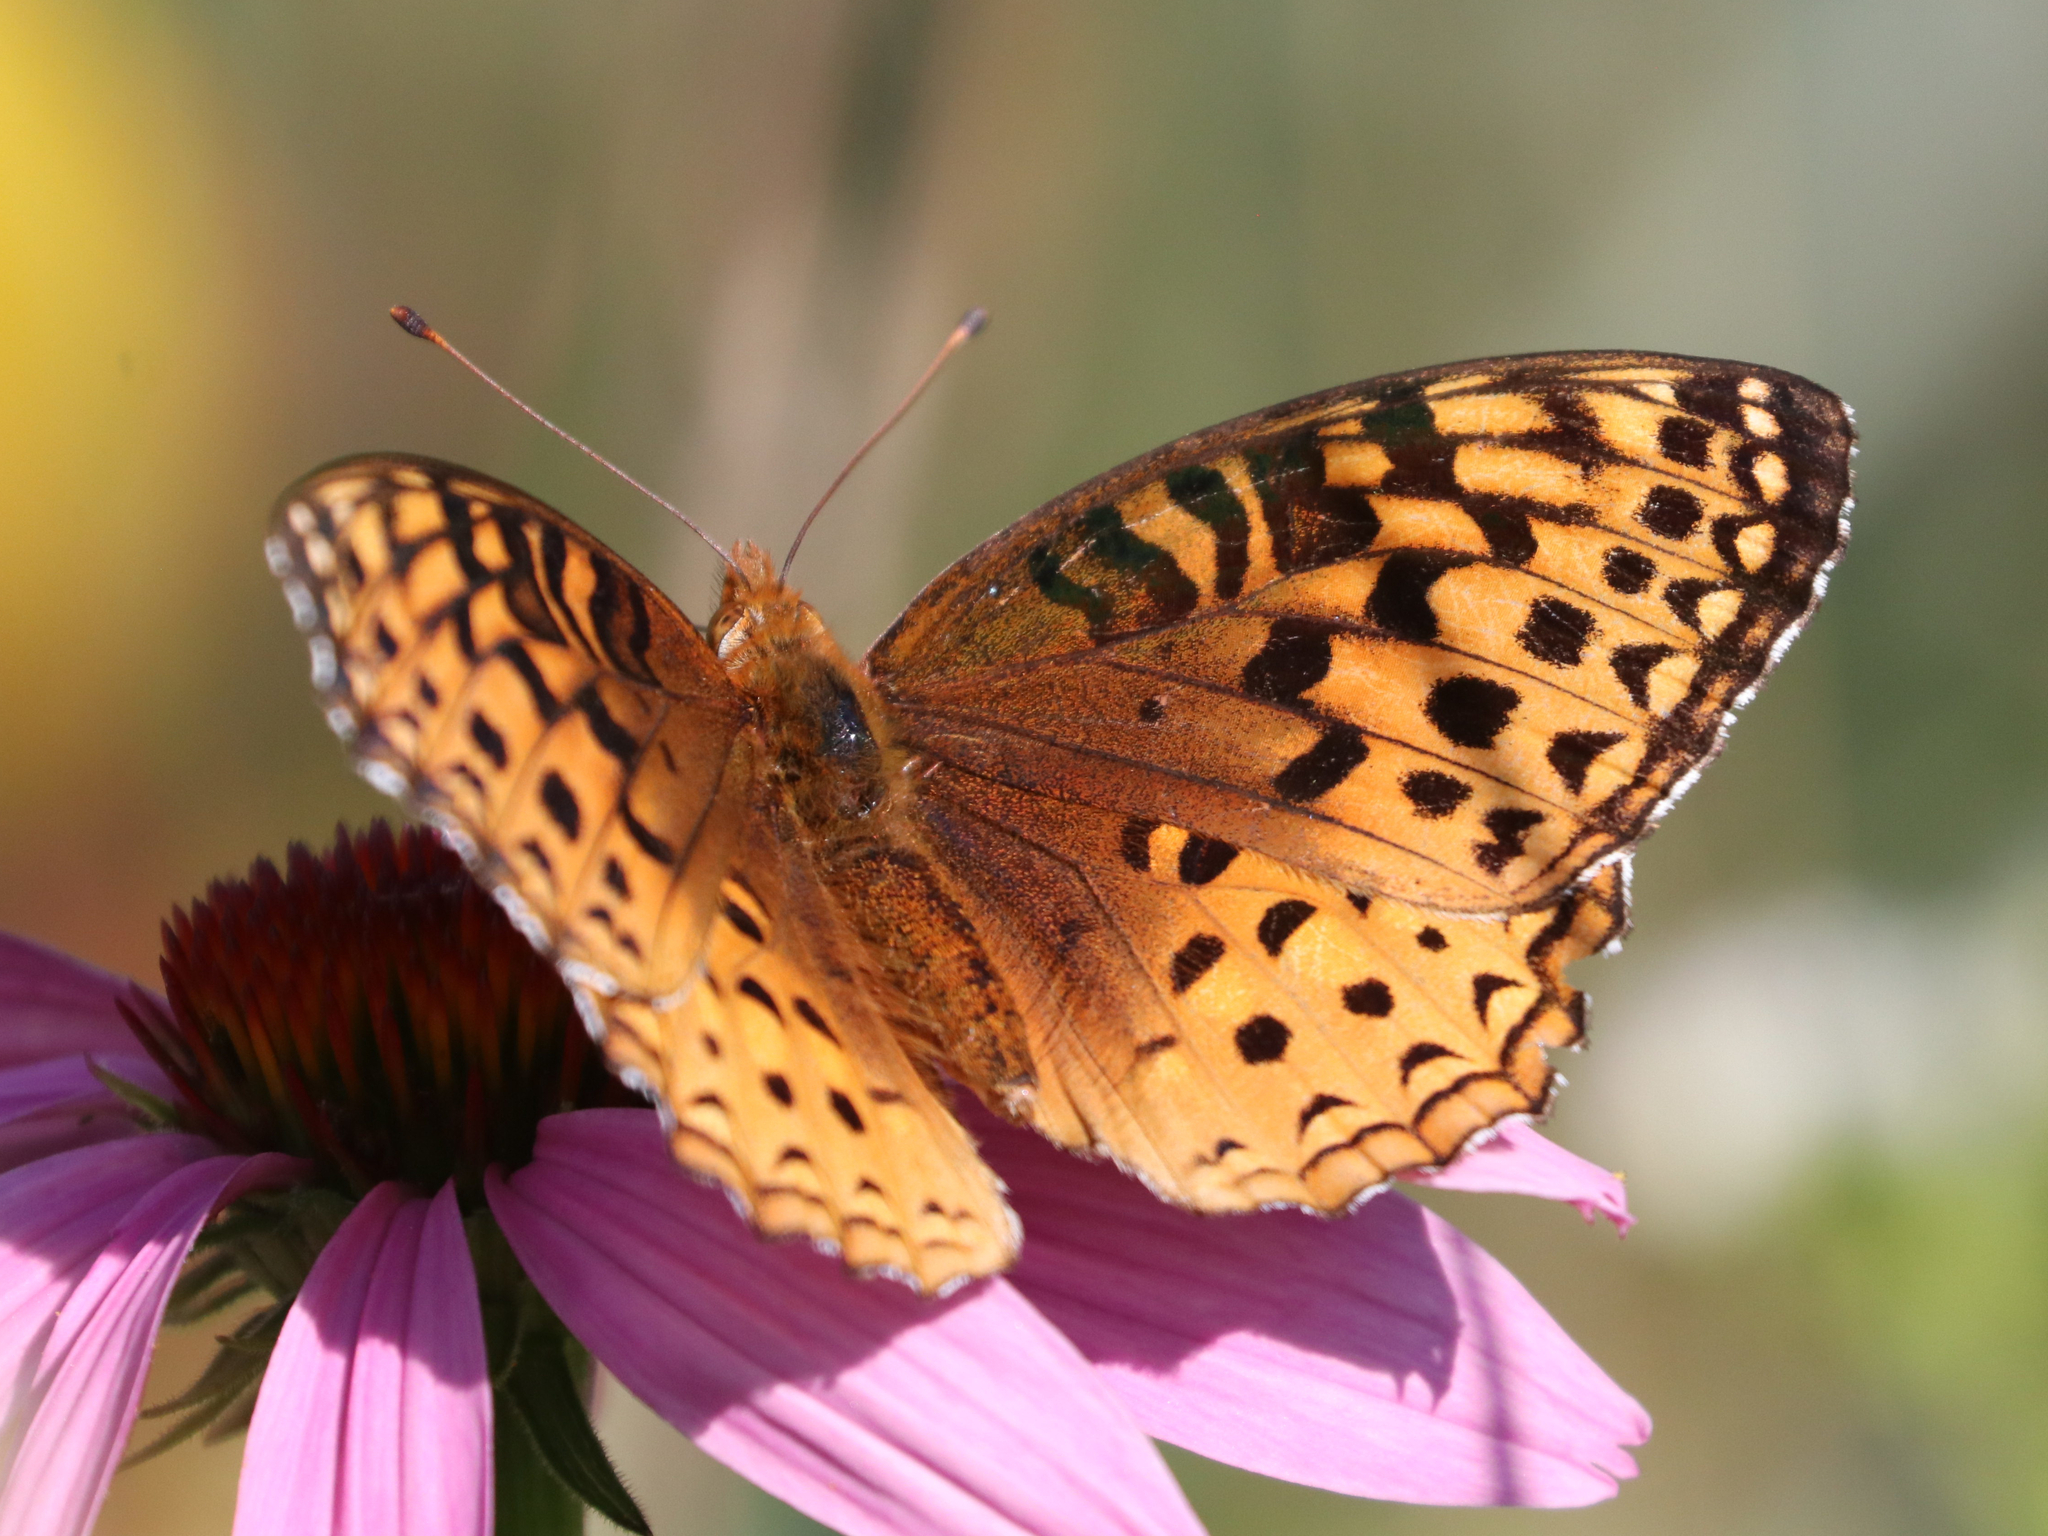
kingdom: Animalia
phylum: Arthropoda
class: Insecta
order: Lepidoptera
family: Nymphalidae
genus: Speyeria
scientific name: Speyeria aphrodite
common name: Aphrodite friitllary
